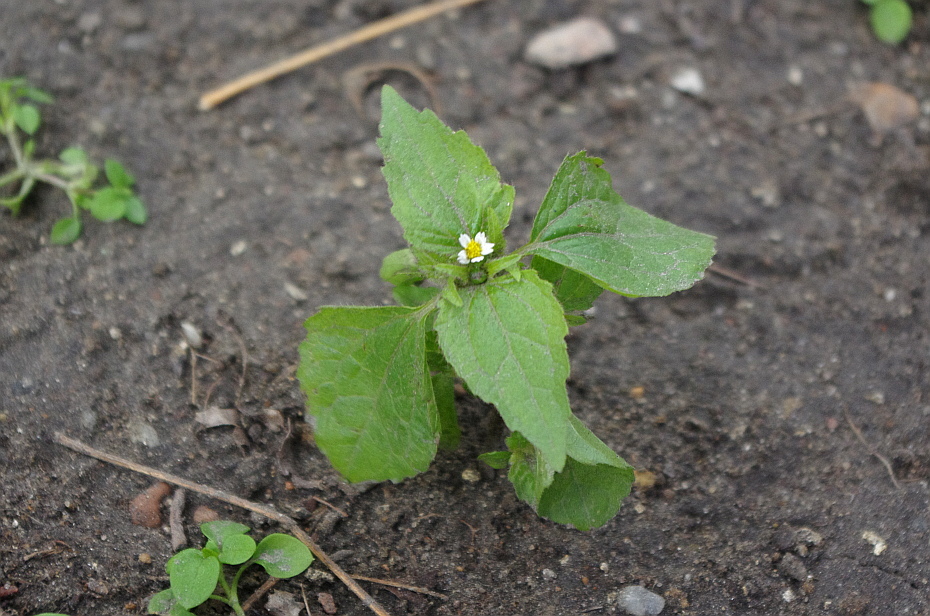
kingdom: Plantae
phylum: Tracheophyta
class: Magnoliopsida
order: Asterales
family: Asteraceae
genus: Galinsoga
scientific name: Galinsoga quadriradiata
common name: Shaggy soldier
